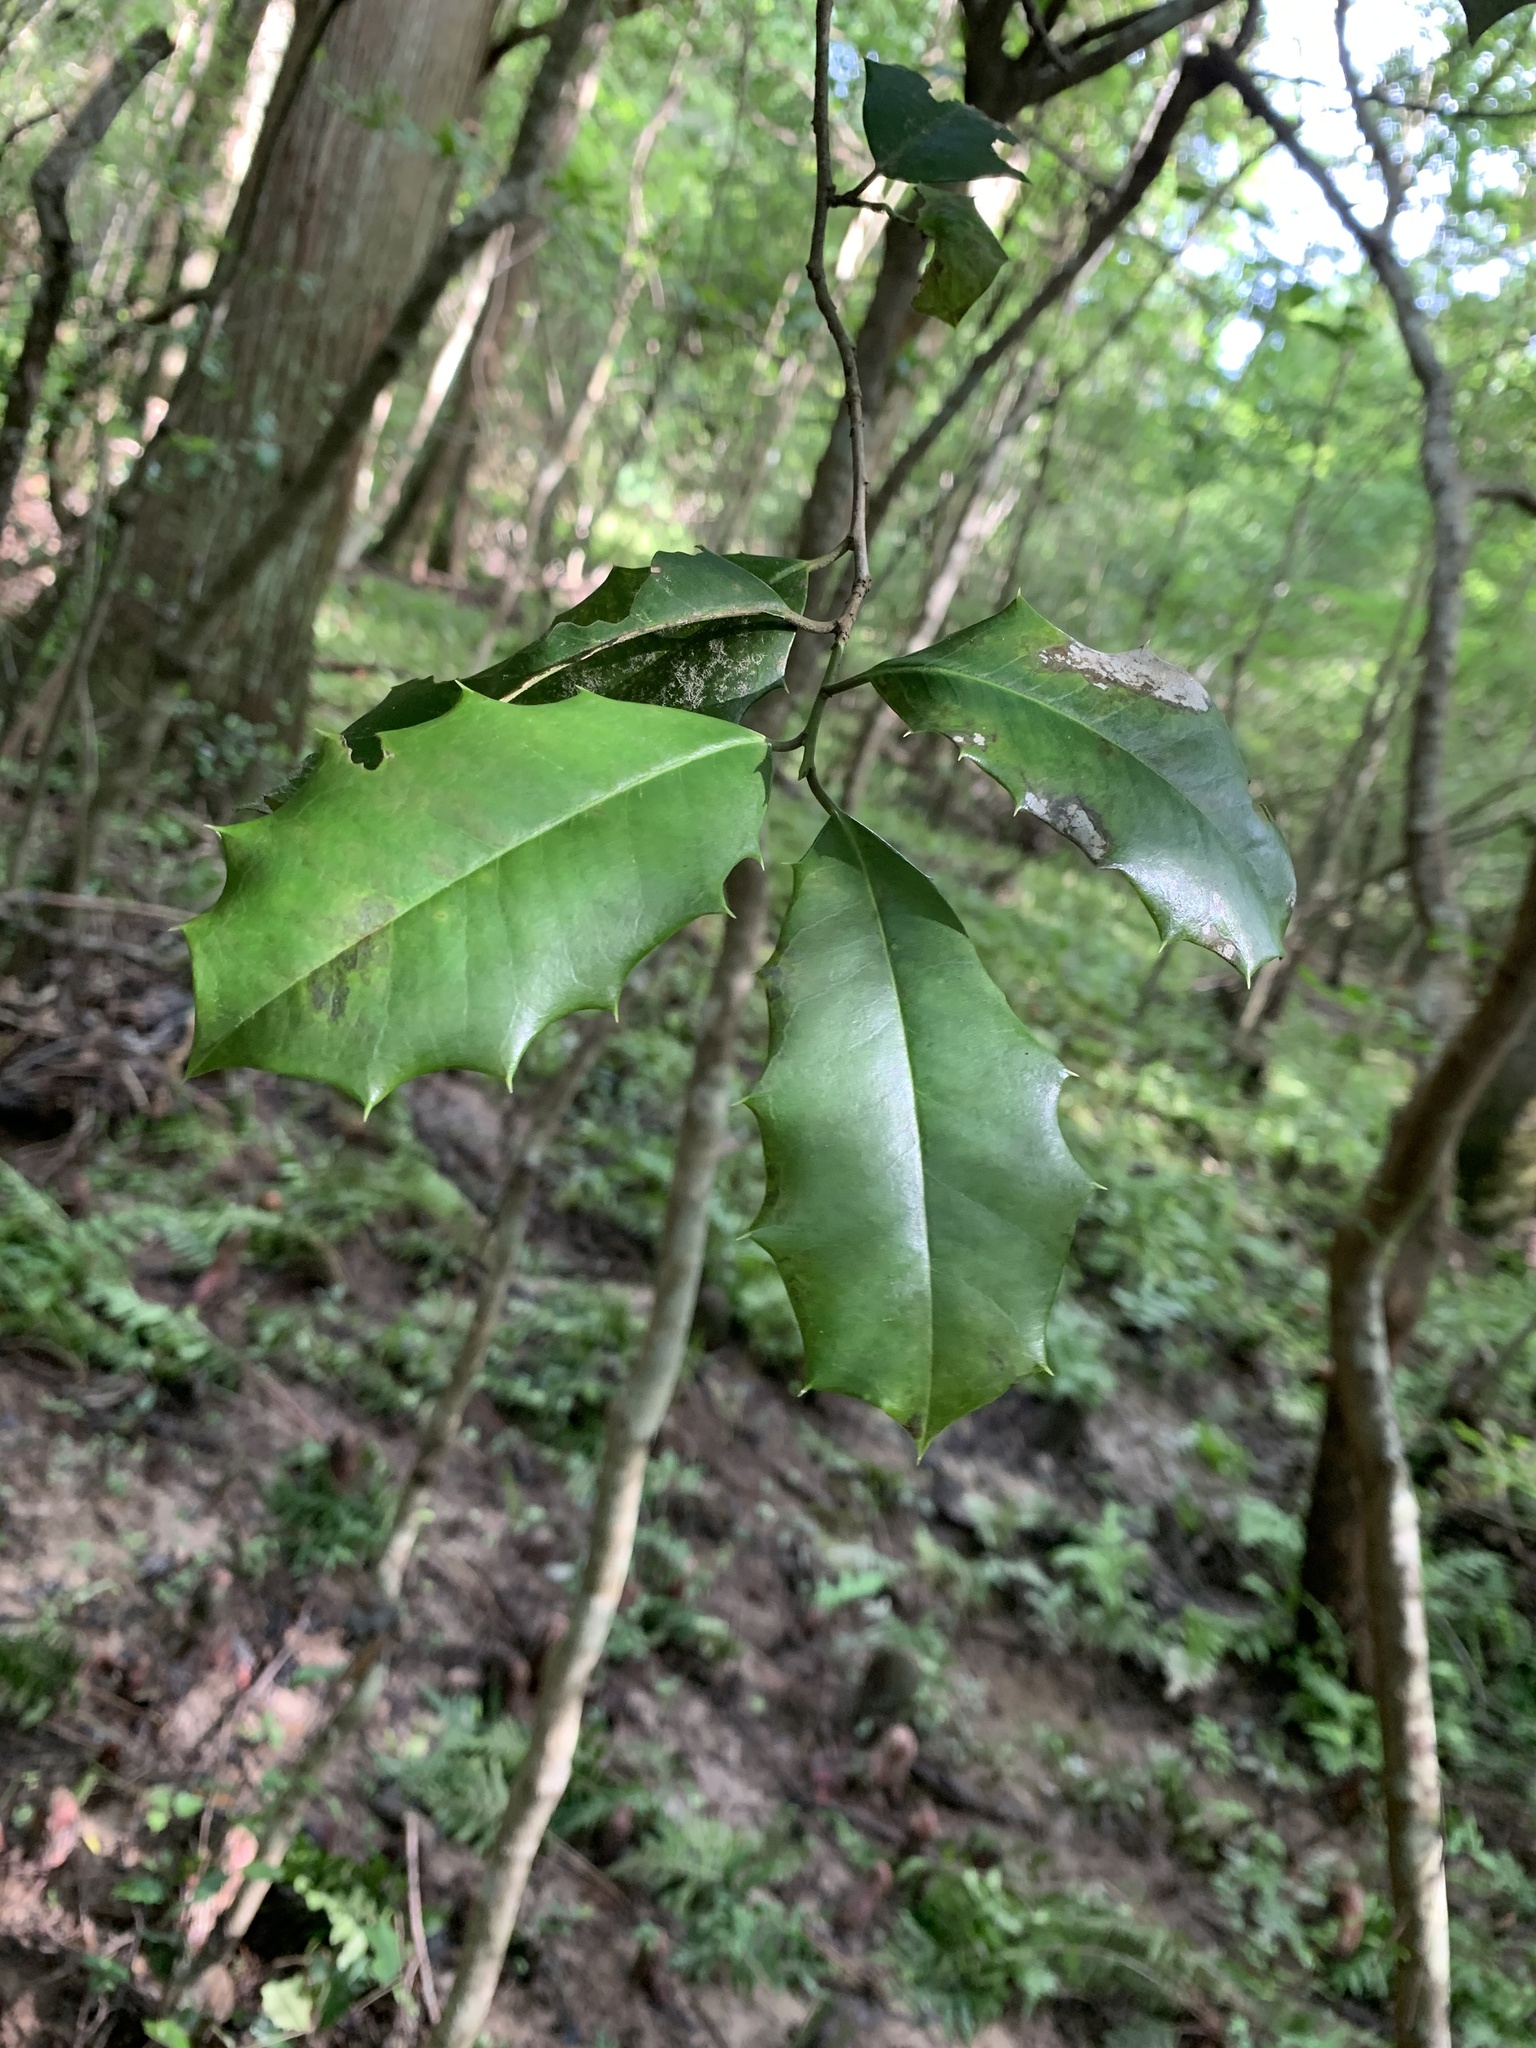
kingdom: Plantae
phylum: Tracheophyta
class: Magnoliopsida
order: Aquifoliales
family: Aquifoliaceae
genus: Ilex
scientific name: Ilex opaca
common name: American holly
